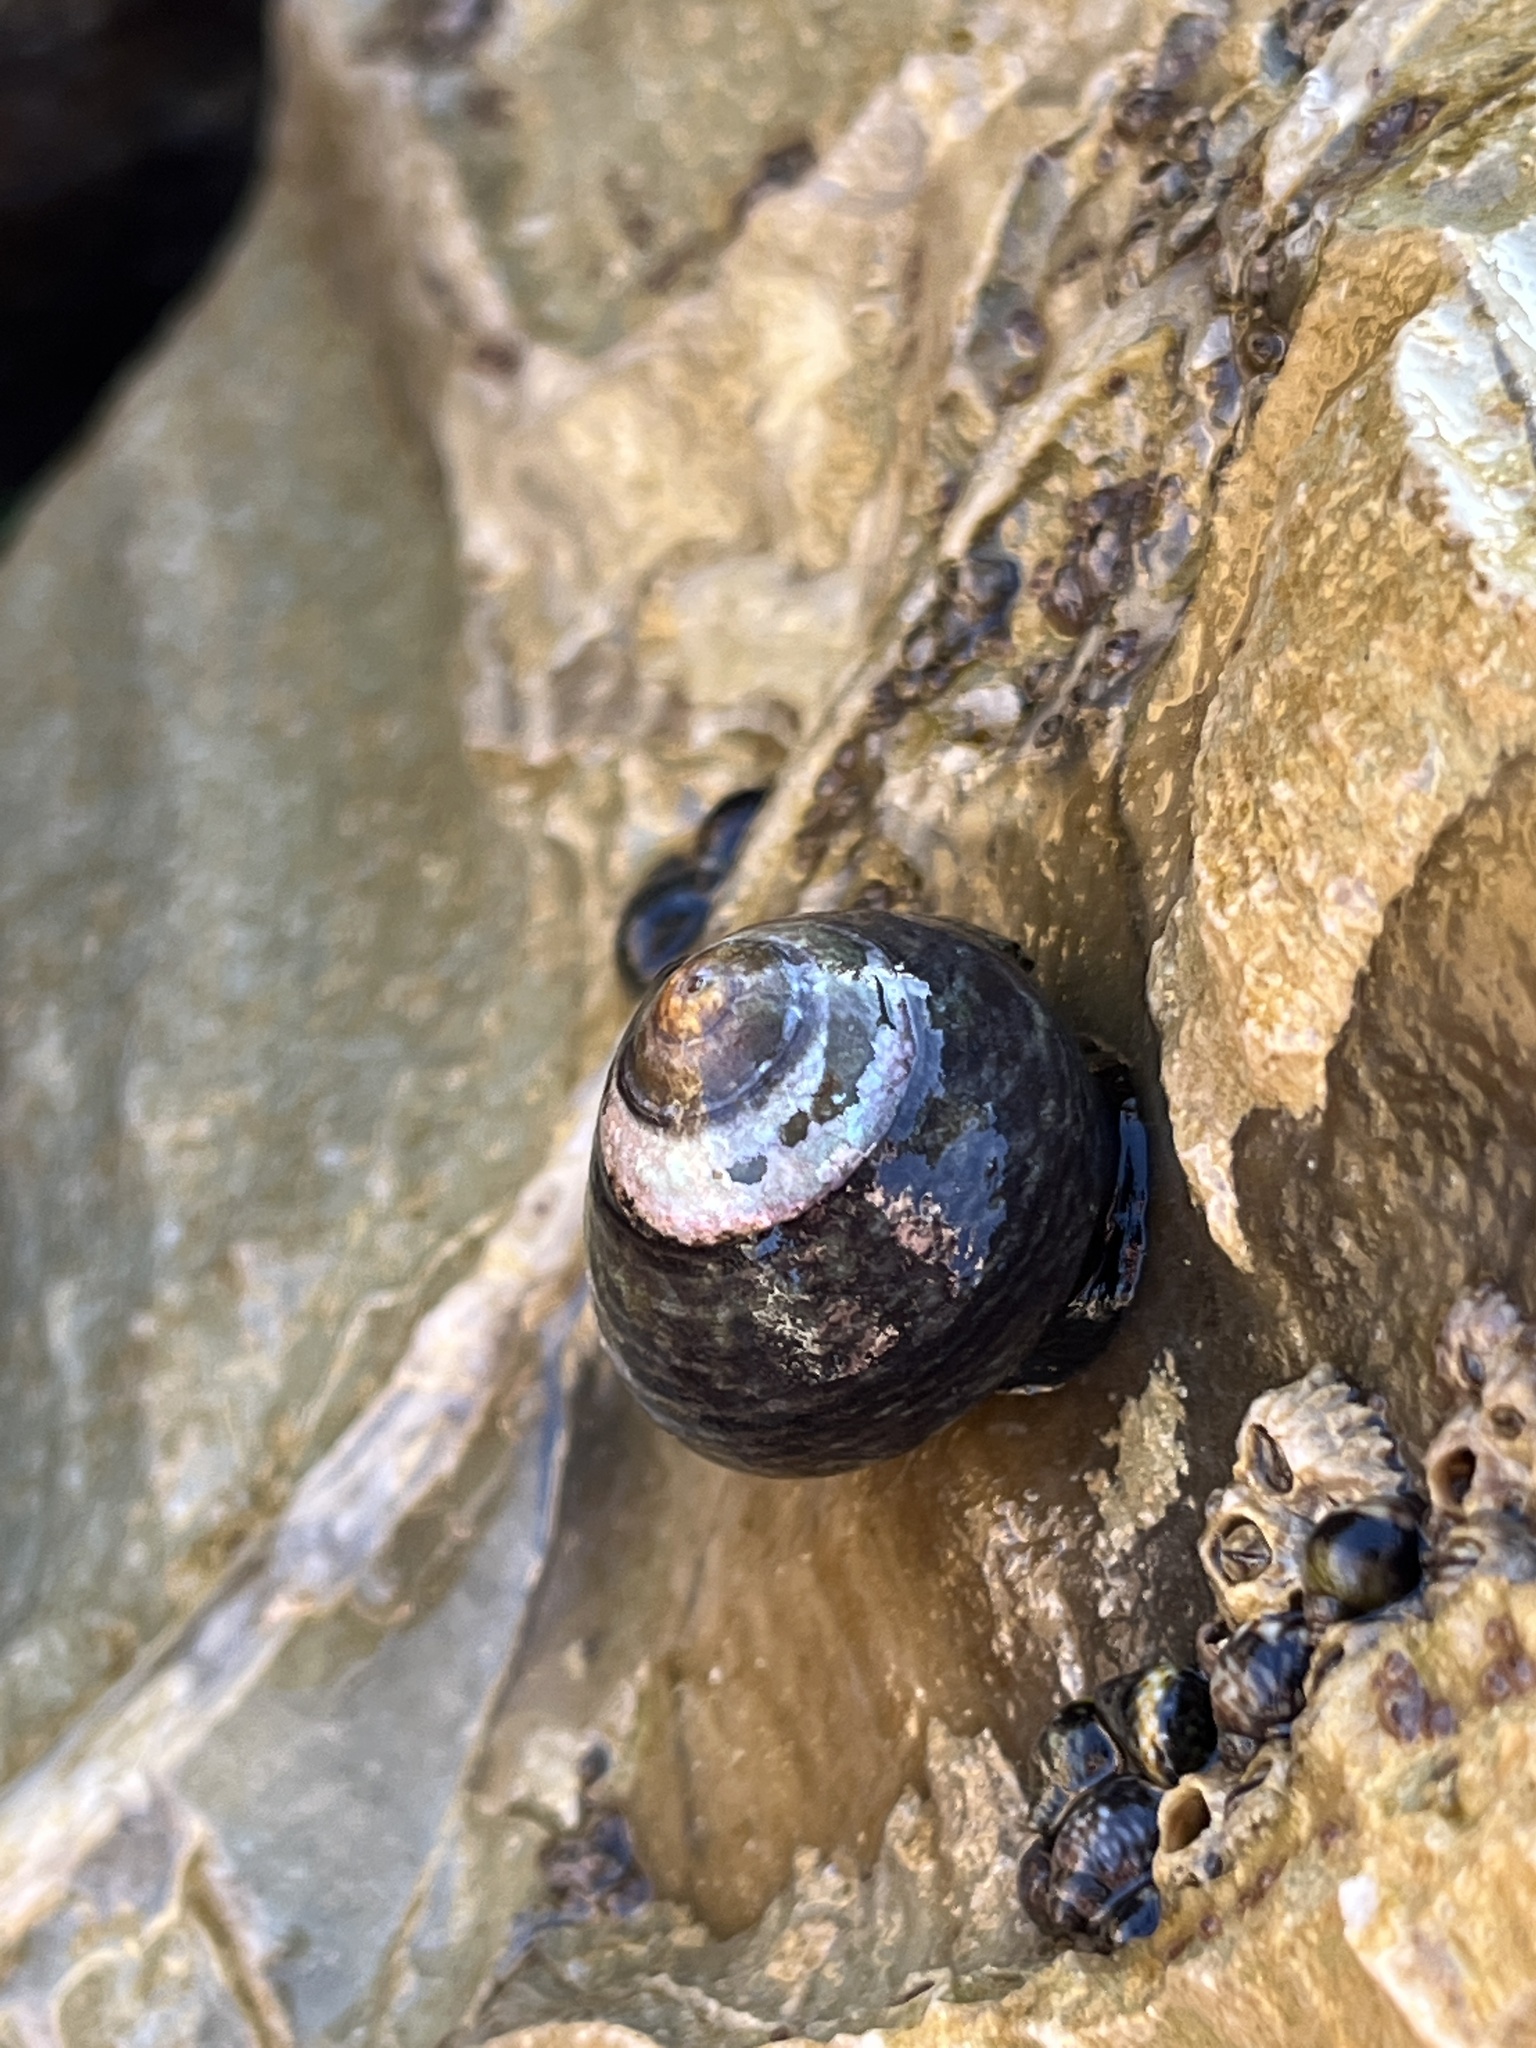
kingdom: Animalia
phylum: Mollusca
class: Gastropoda
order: Trochida
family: Tegulidae
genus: Tegula
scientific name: Tegula funebralis
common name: Black tegula
